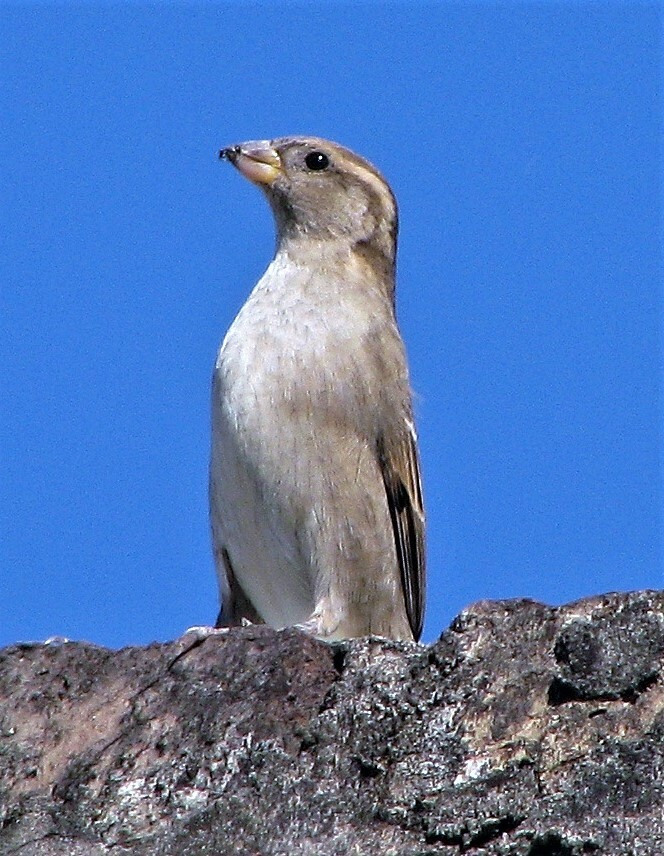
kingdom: Animalia
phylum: Chordata
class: Aves
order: Passeriformes
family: Passeridae
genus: Passer
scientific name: Passer domesticus
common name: House sparrow
